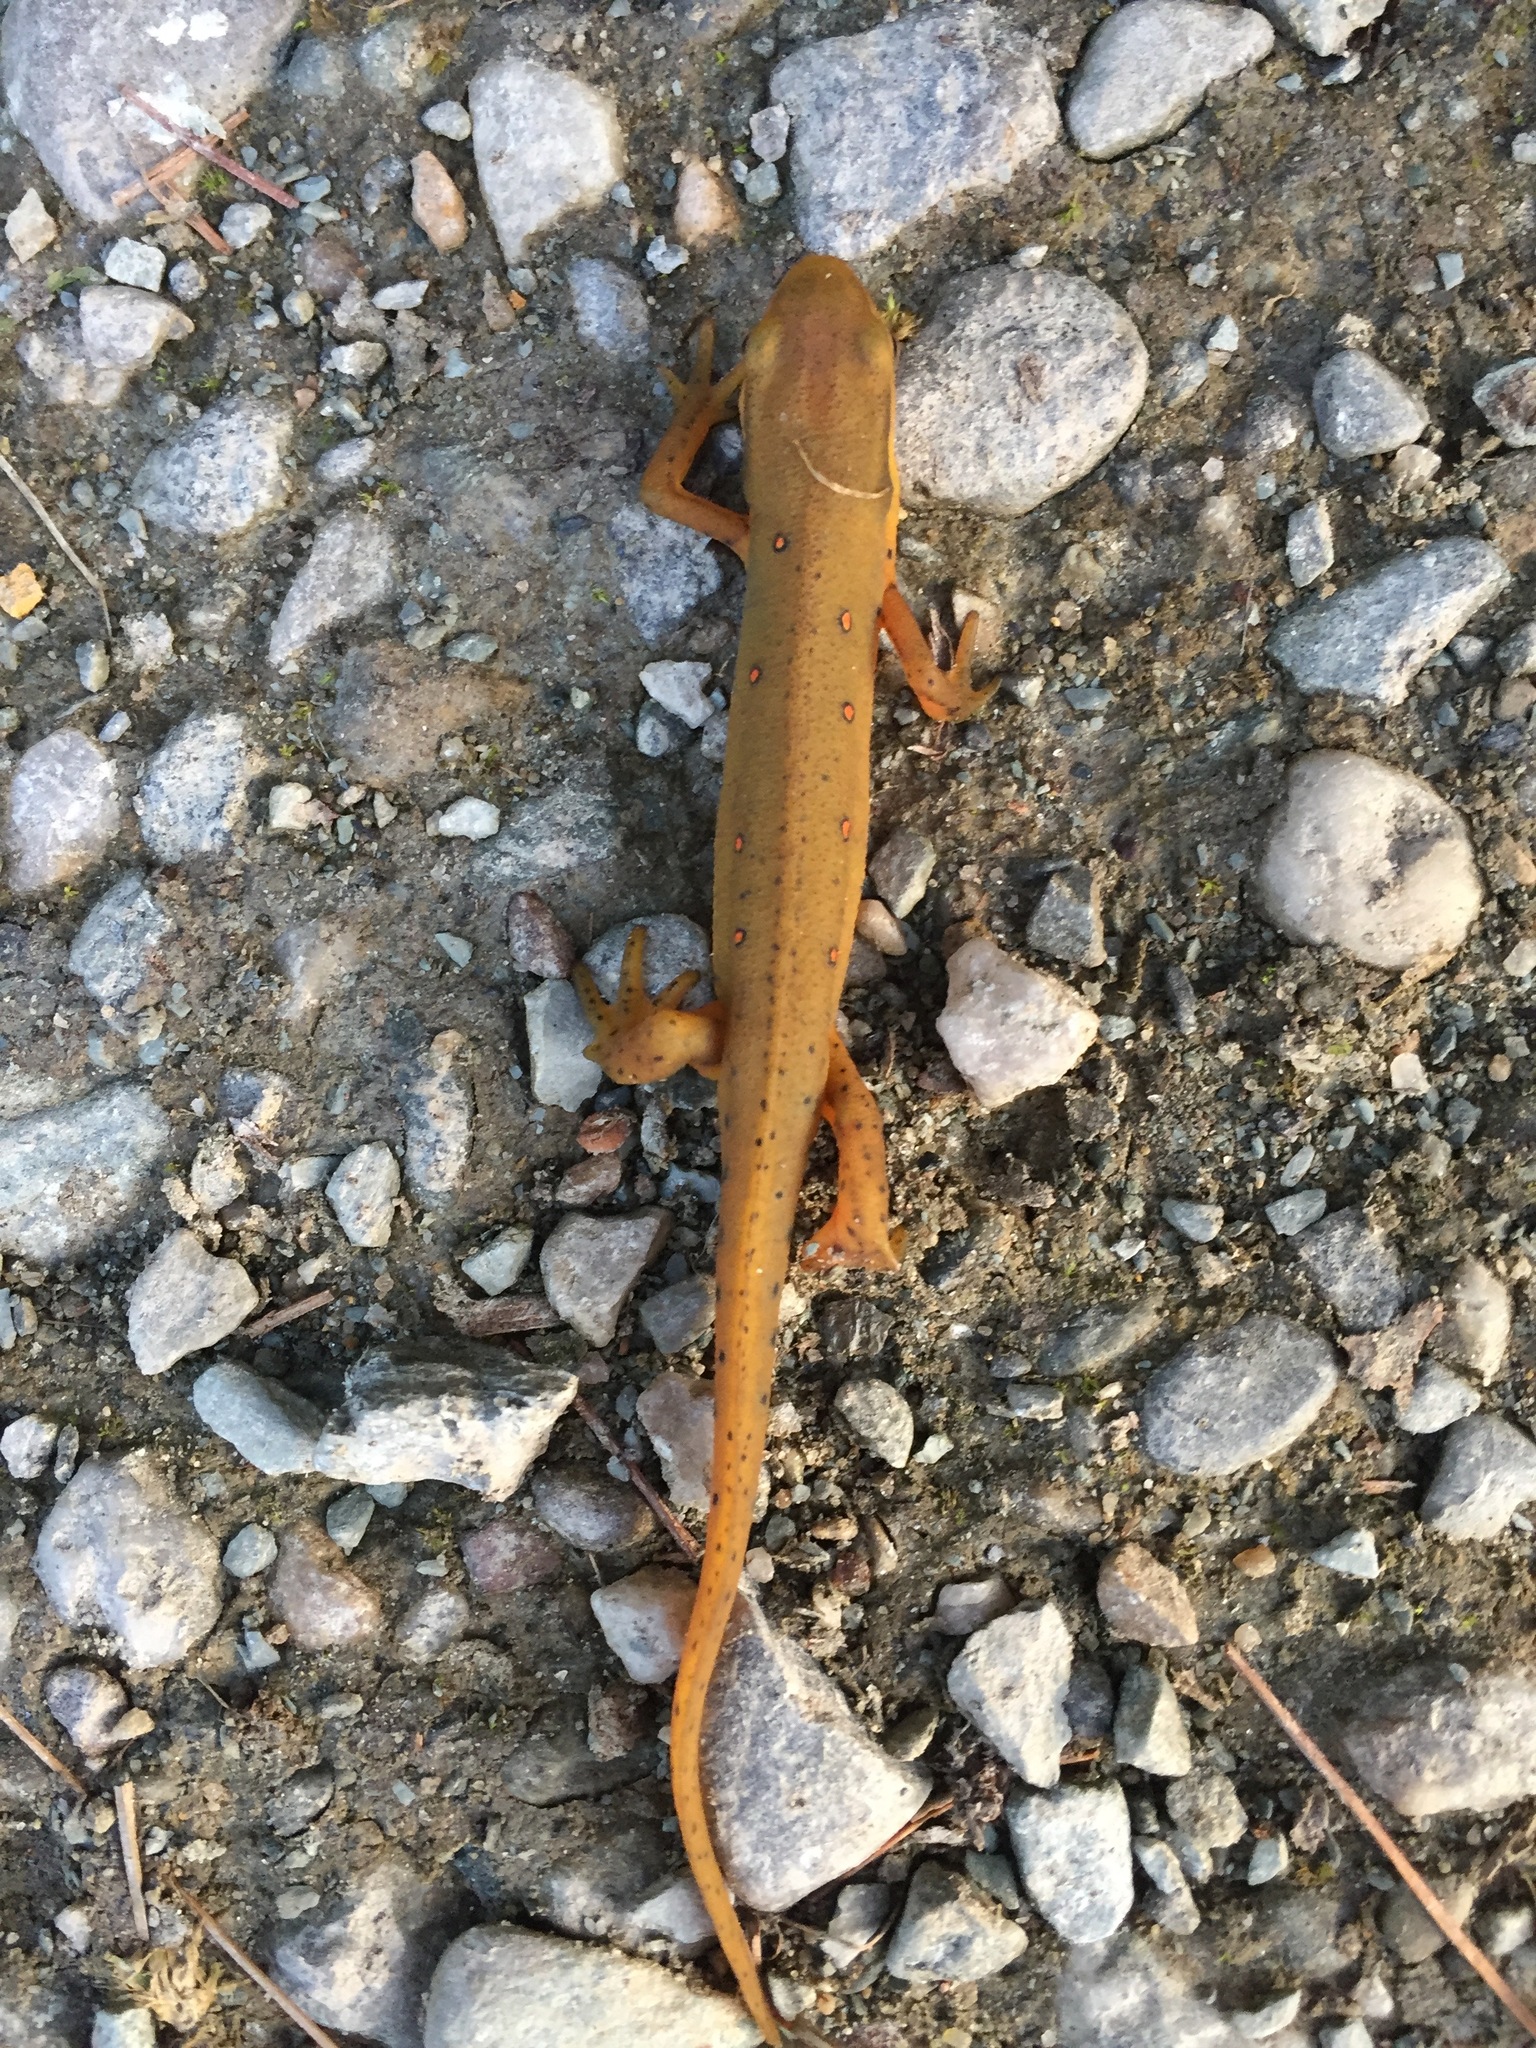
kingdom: Animalia
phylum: Chordata
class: Amphibia
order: Caudata
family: Salamandridae
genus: Notophthalmus
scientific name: Notophthalmus viridescens
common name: Eastern newt
